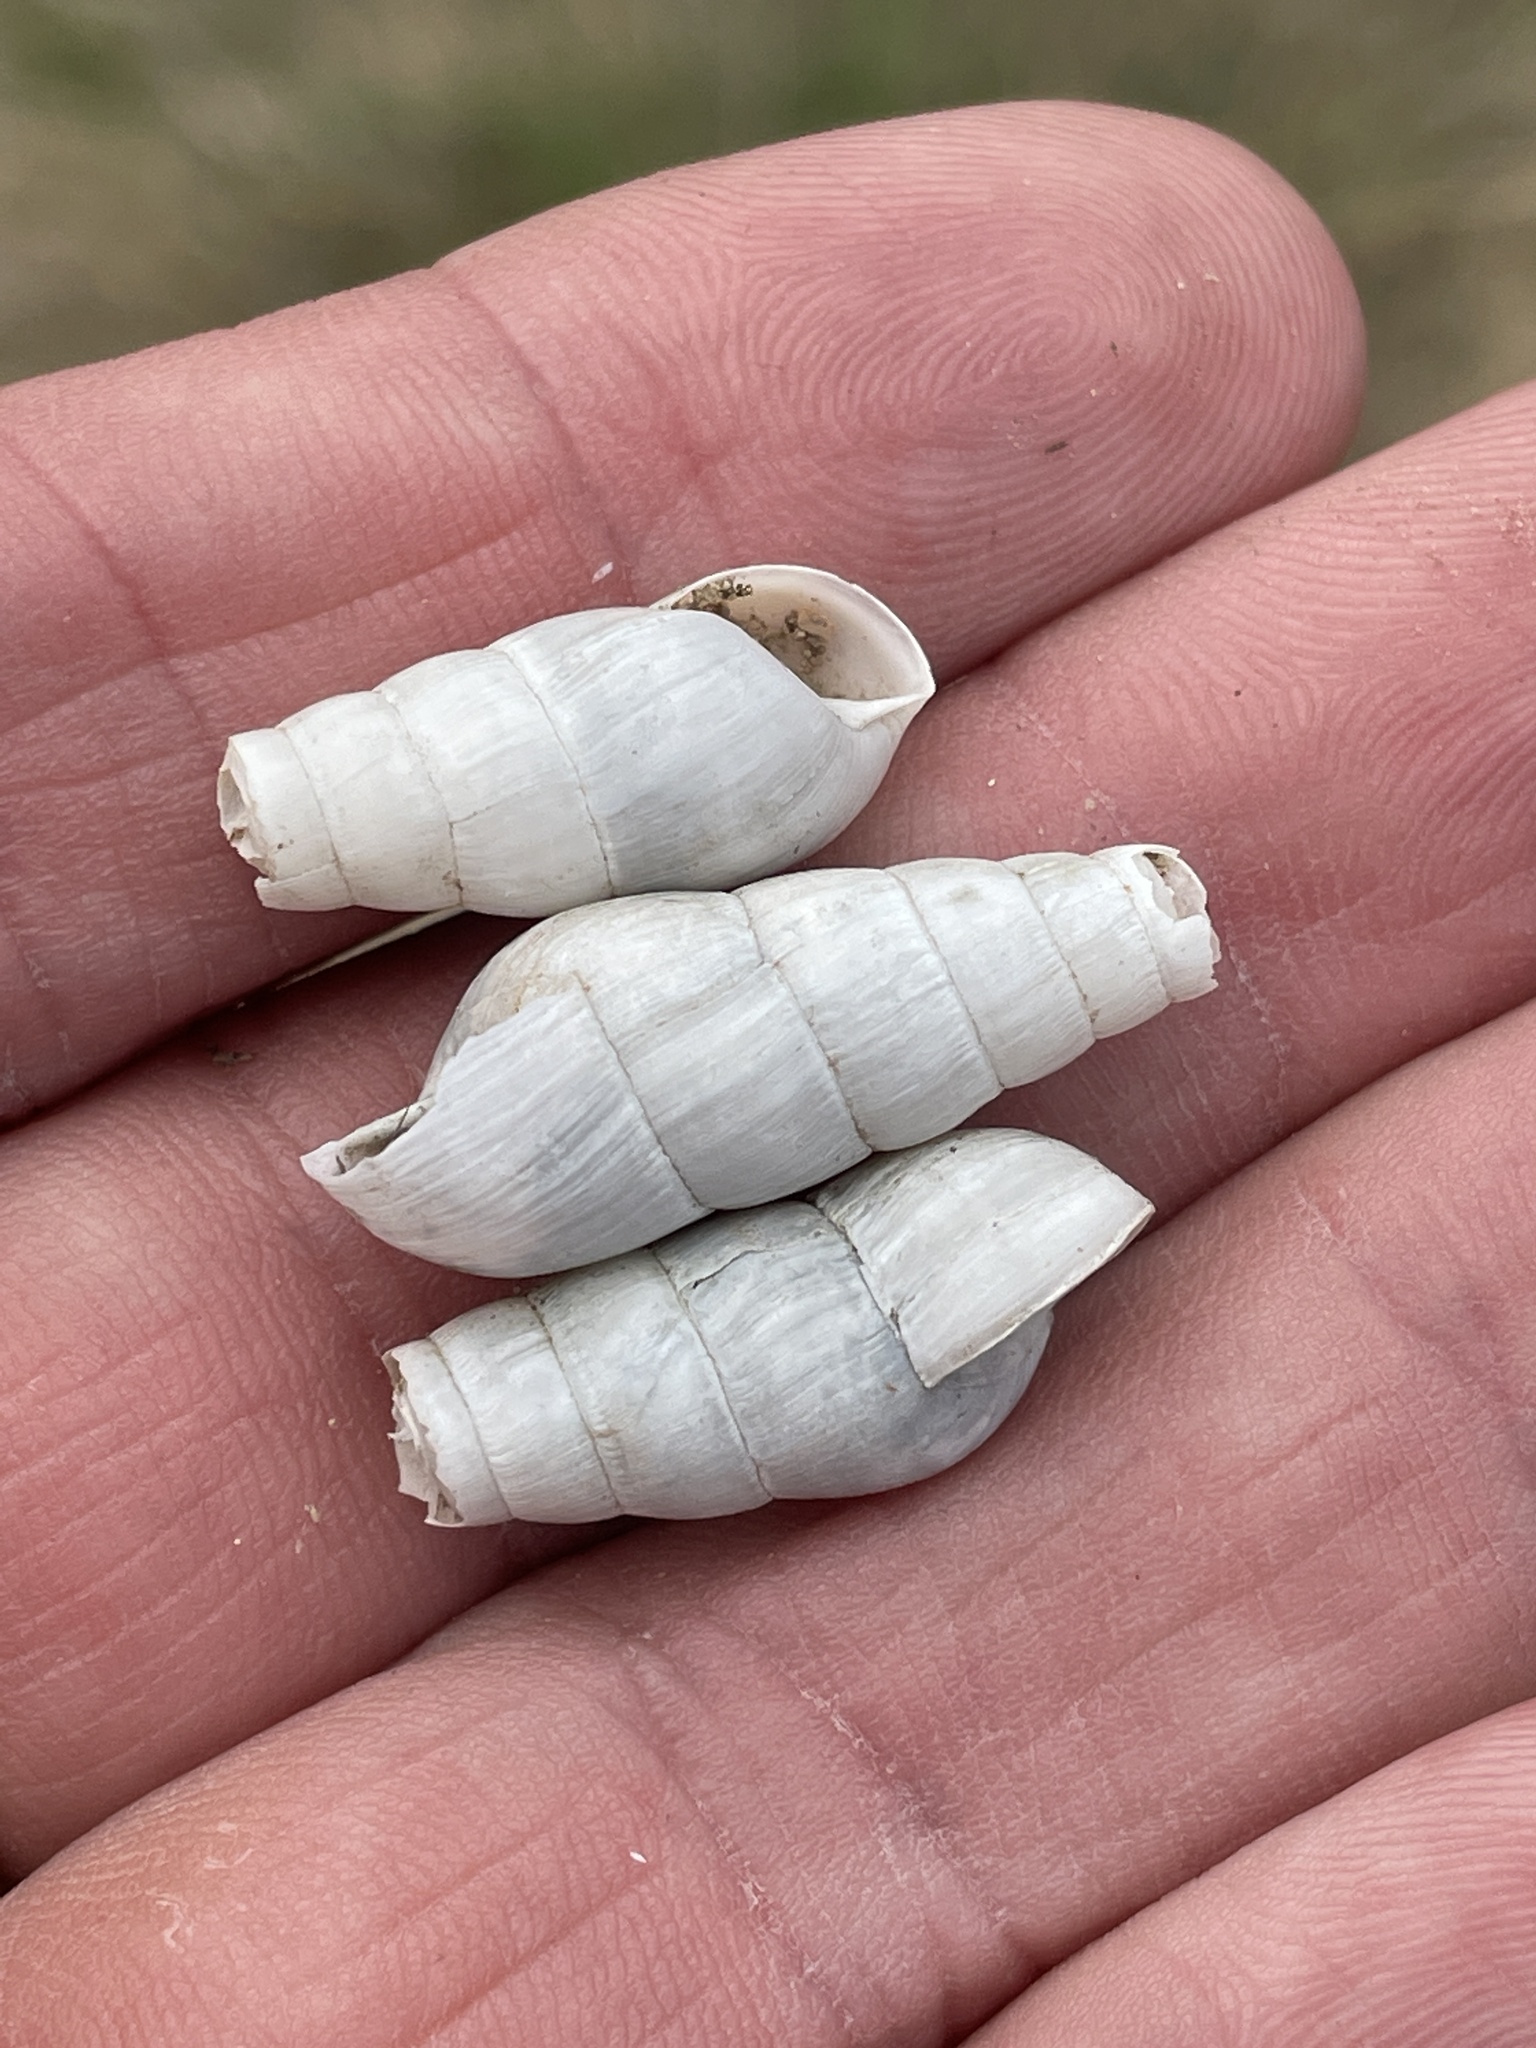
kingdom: Animalia
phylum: Mollusca
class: Gastropoda
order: Stylommatophora
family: Achatinidae
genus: Rumina
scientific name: Rumina decollata
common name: Decollate snail
